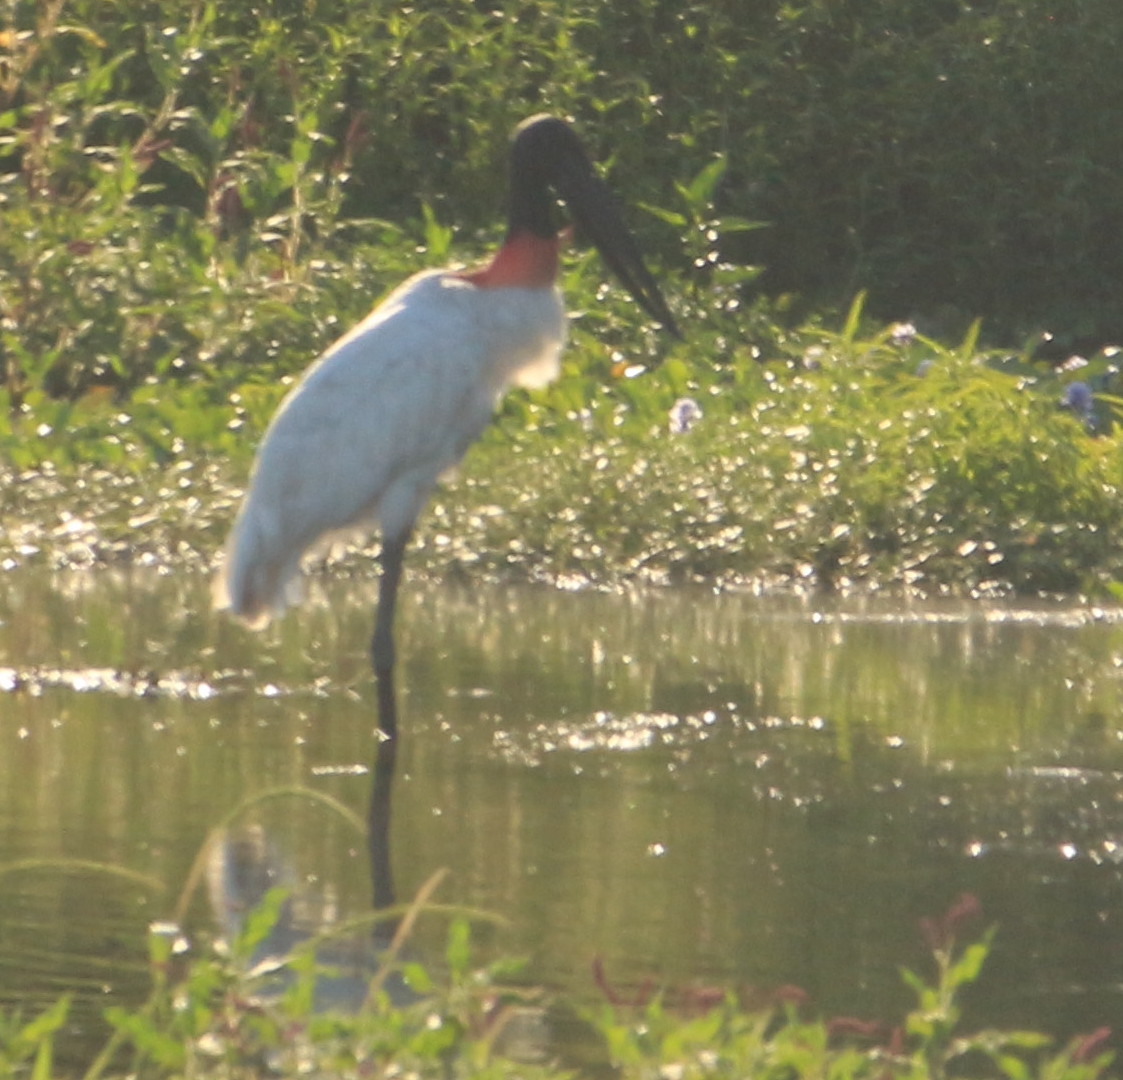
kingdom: Animalia
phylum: Chordata
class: Aves
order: Ciconiiformes
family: Ciconiidae
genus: Jabiru
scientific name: Jabiru mycteria
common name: Jabiru
